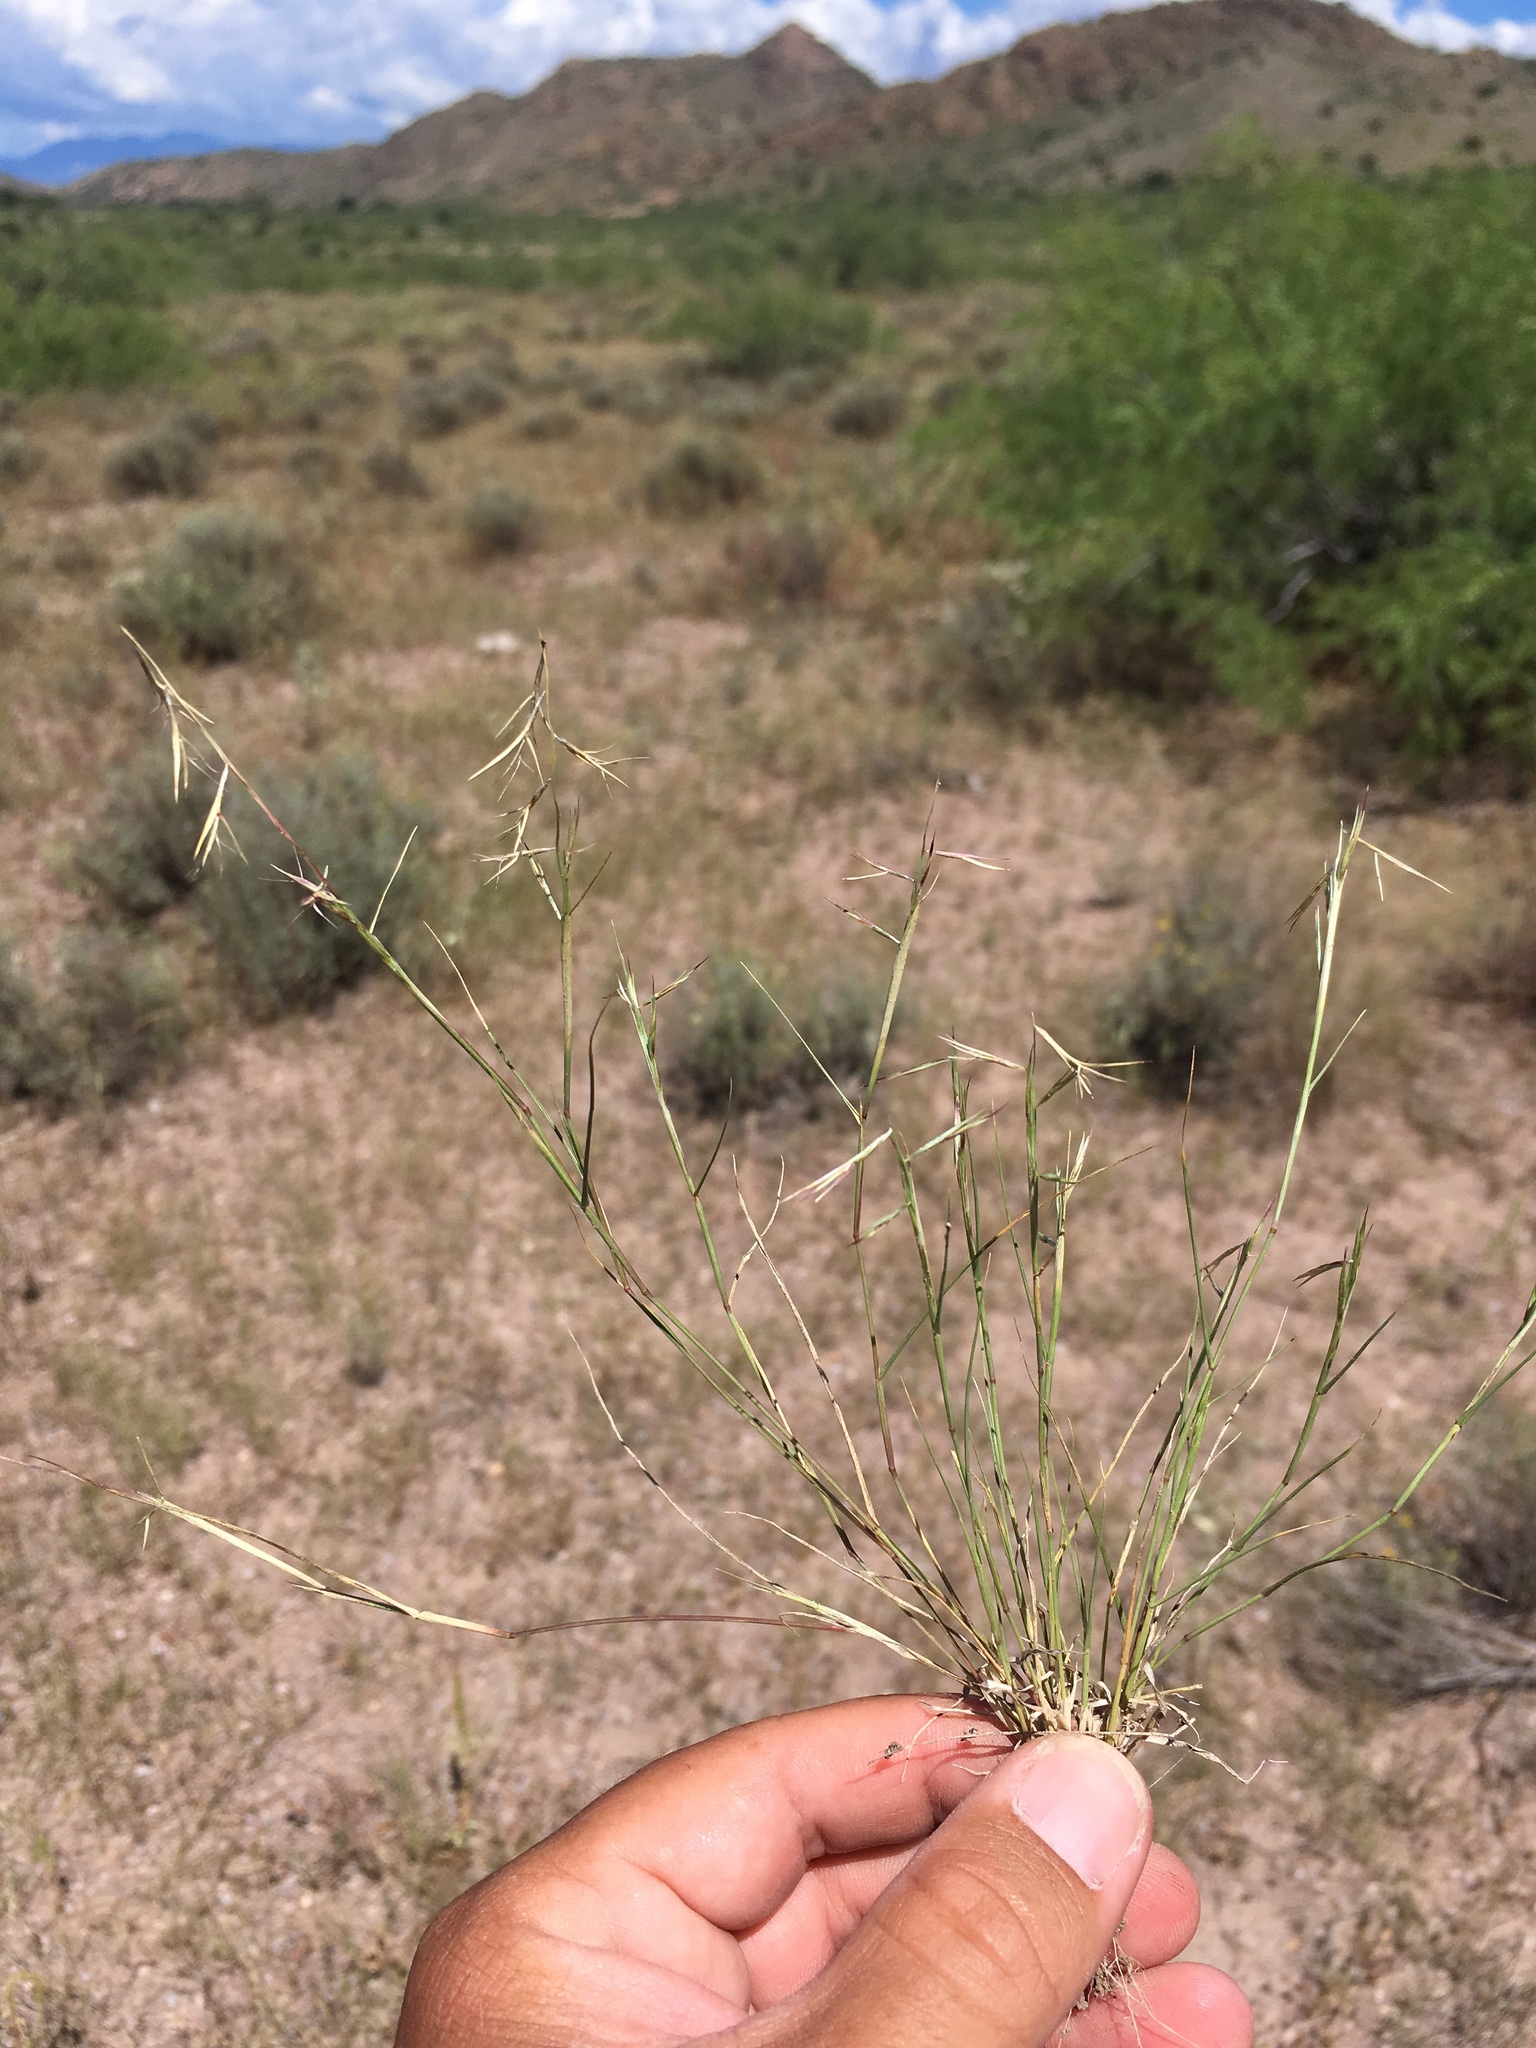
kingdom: Plantae
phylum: Tracheophyta
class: Liliopsida
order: Poales
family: Poaceae
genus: Bouteloua
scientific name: Bouteloua aristidoides
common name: Needle grama
